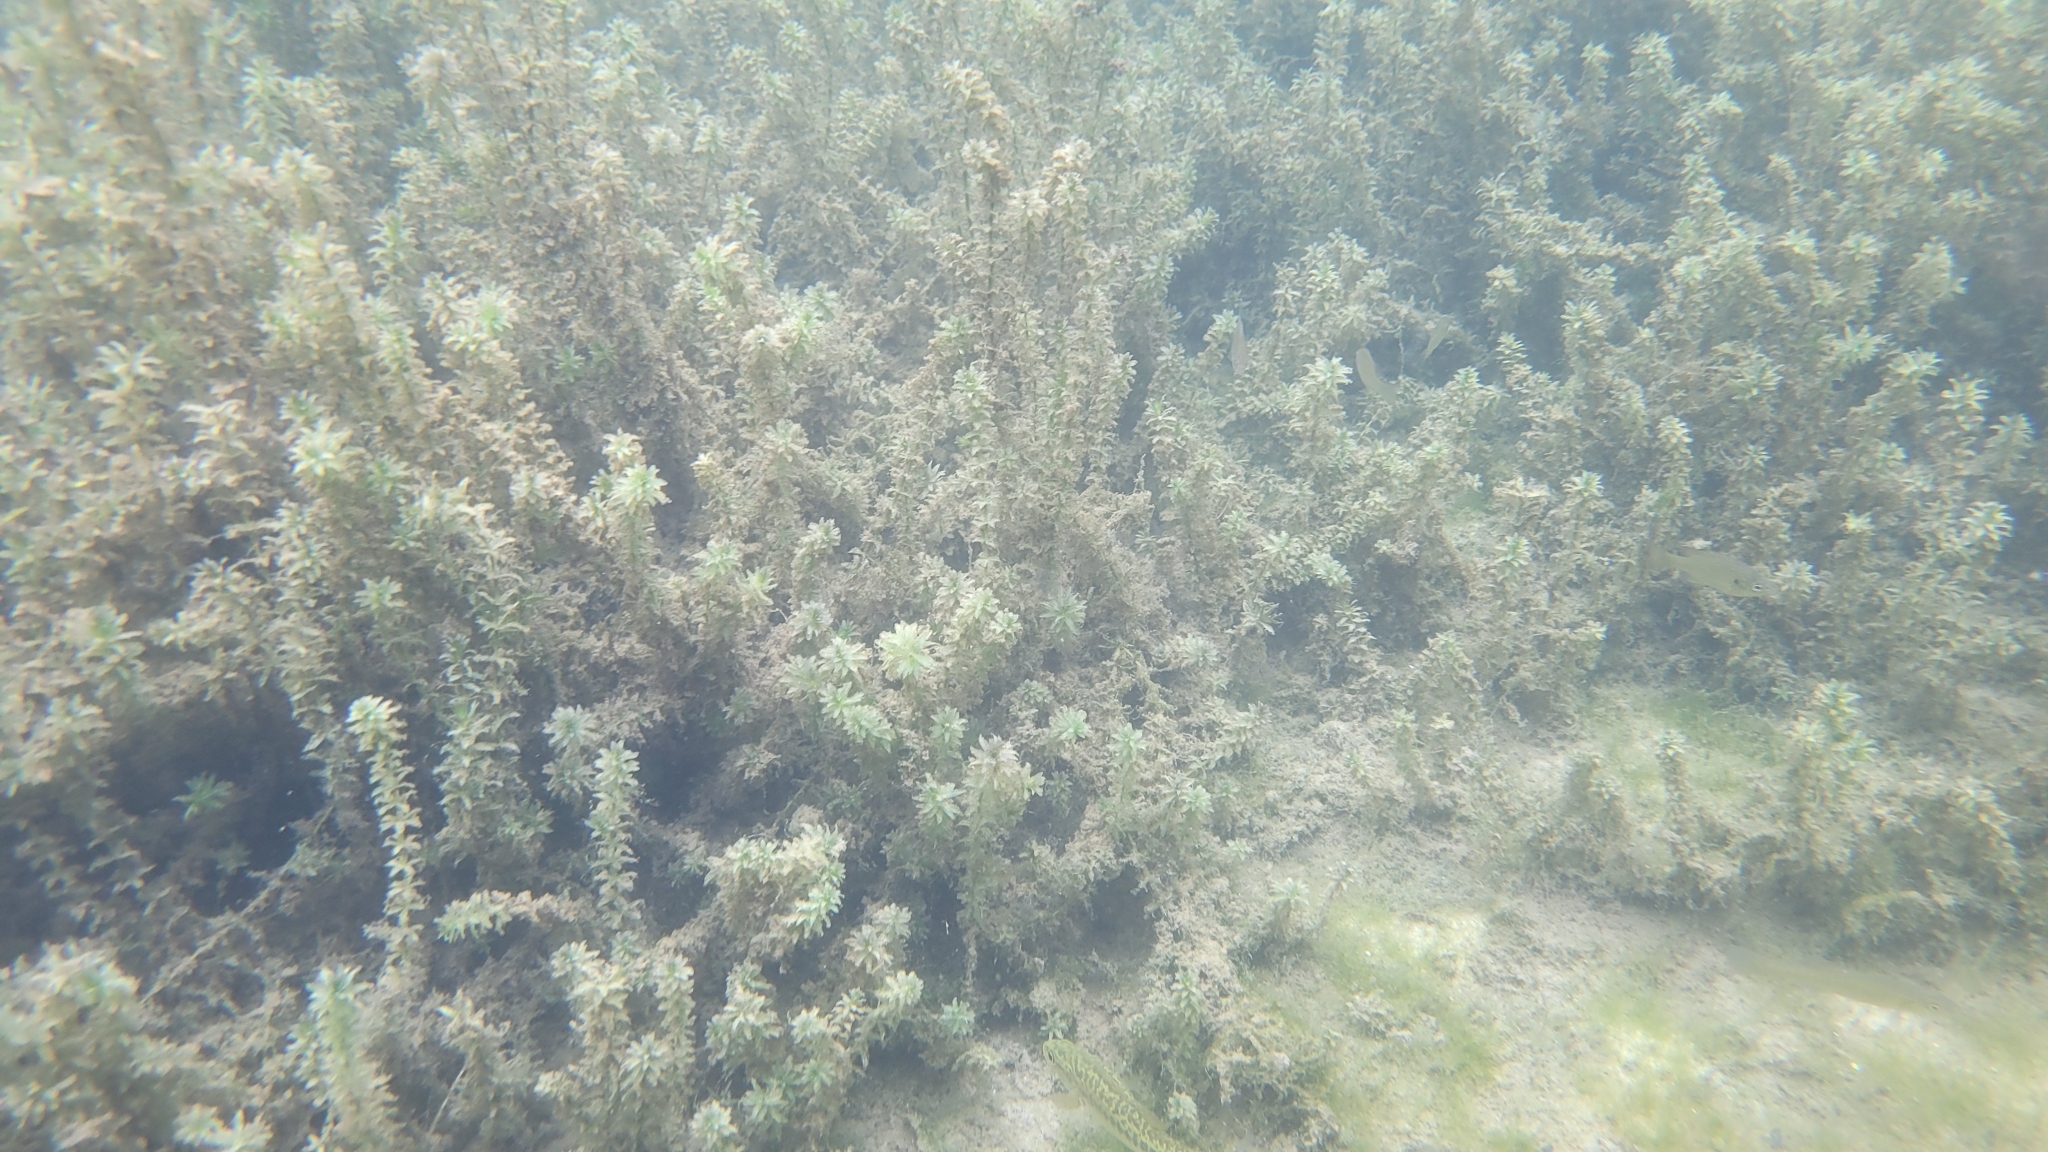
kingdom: Plantae
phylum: Tracheophyta
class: Liliopsida
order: Alismatales
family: Hydrocharitaceae
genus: Hydrilla
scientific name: Hydrilla verticillata
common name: Florida-elodea
